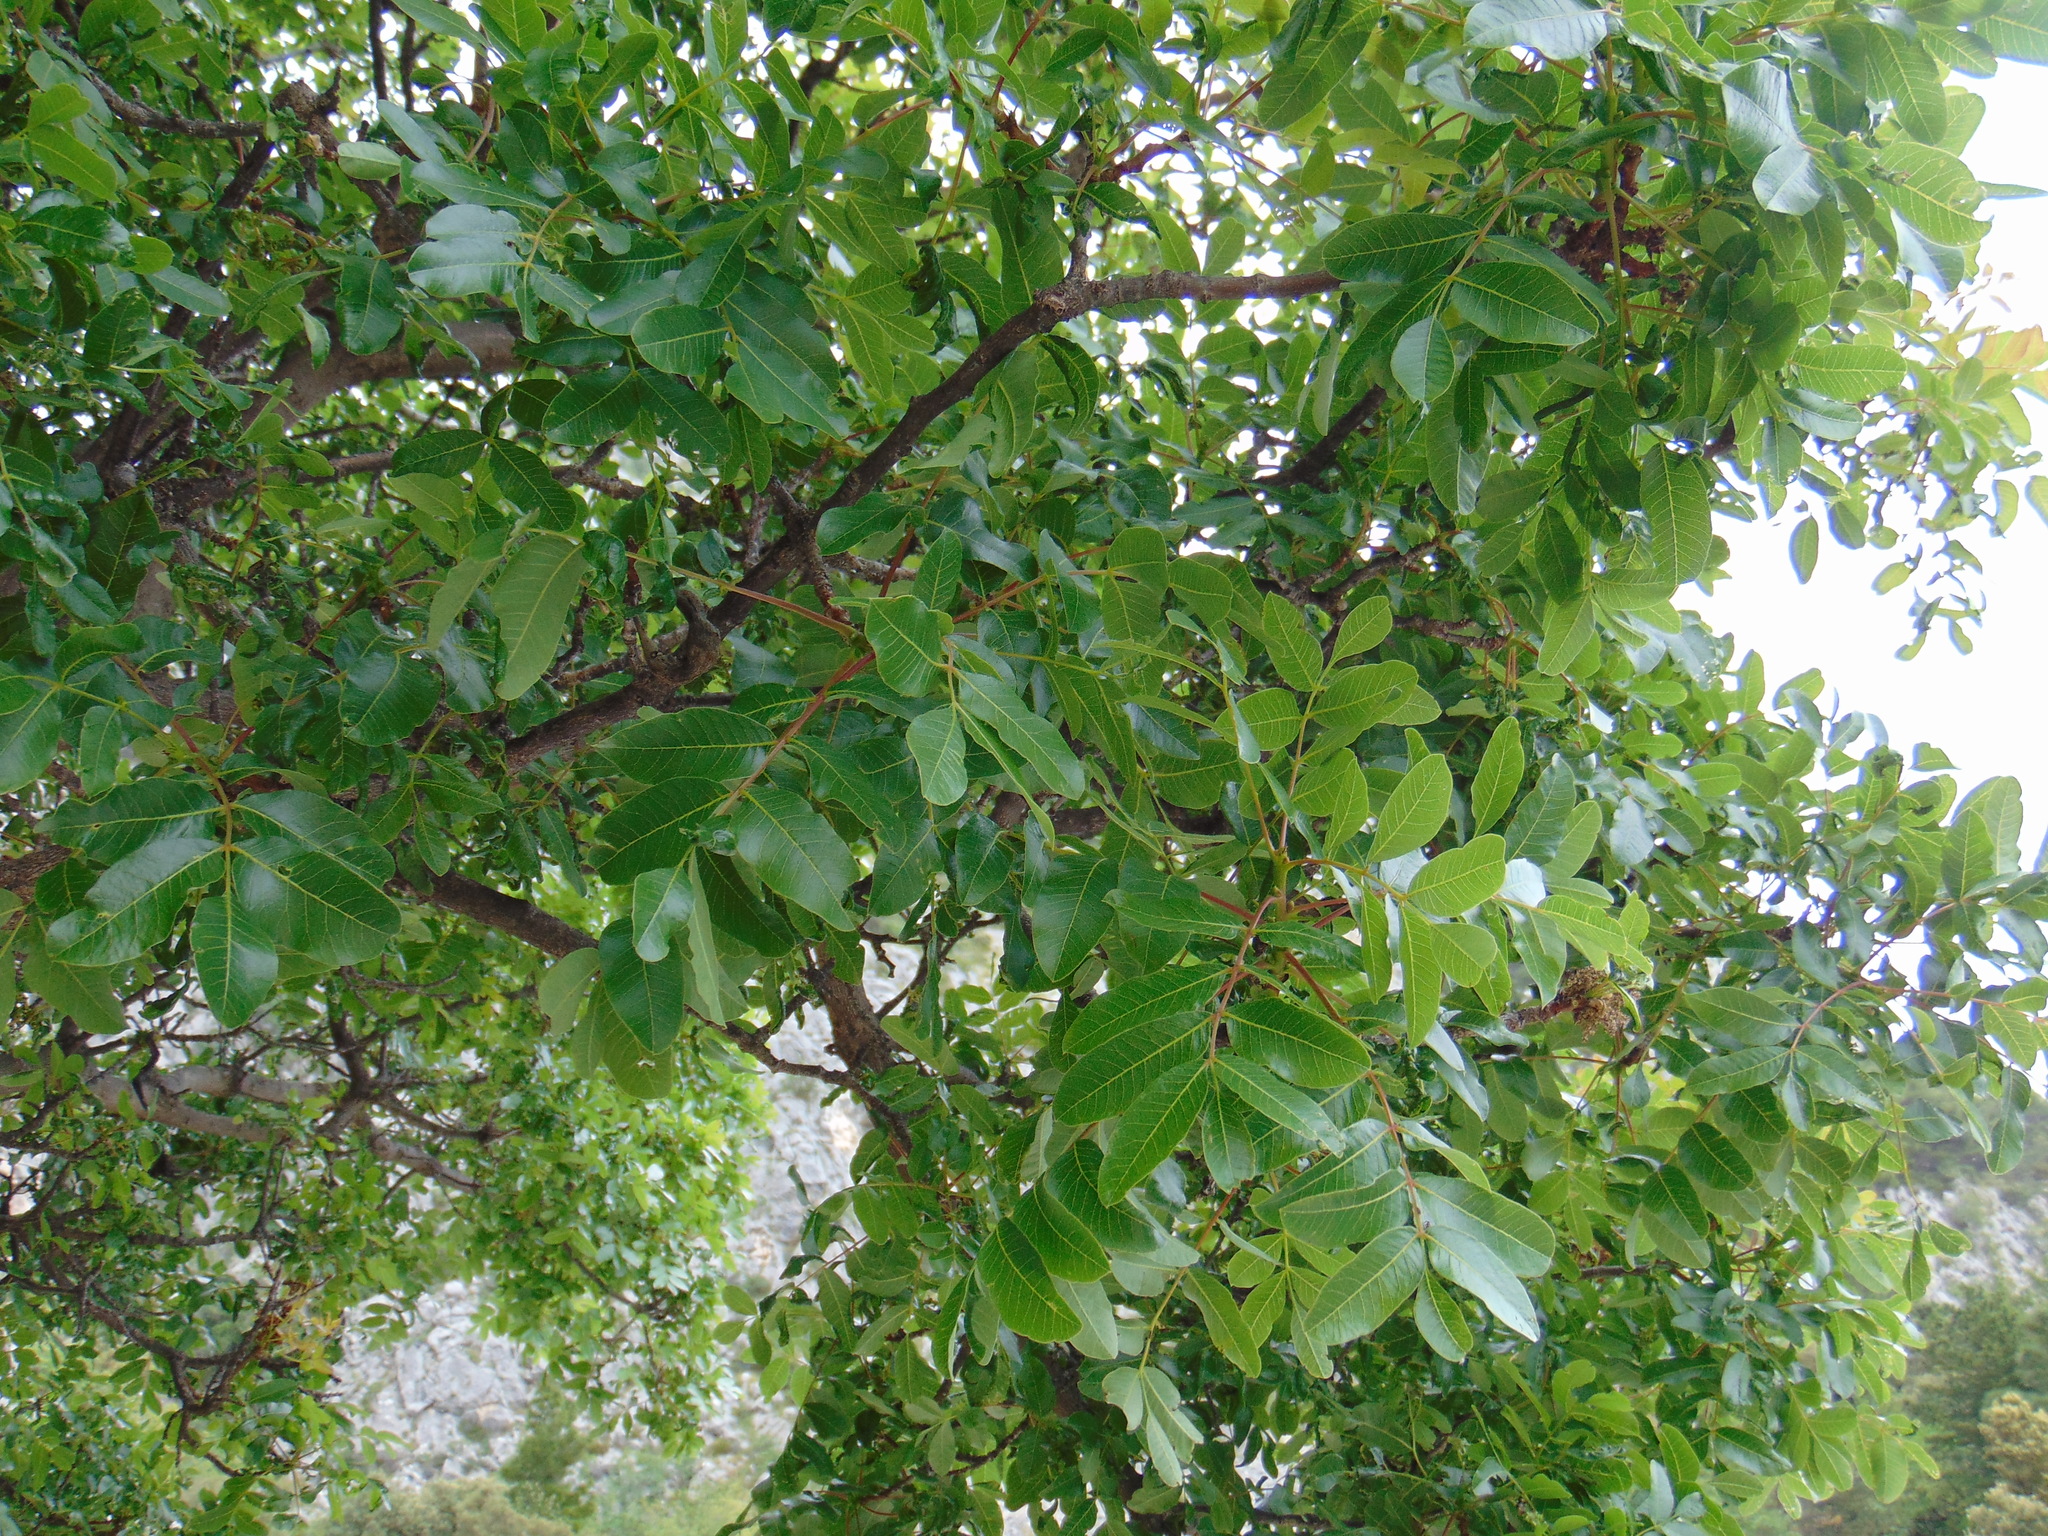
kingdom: Plantae
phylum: Tracheophyta
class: Magnoliopsida
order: Sapindales
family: Anacardiaceae
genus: Pistacia
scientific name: Pistacia terebinthus
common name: Terebinth
